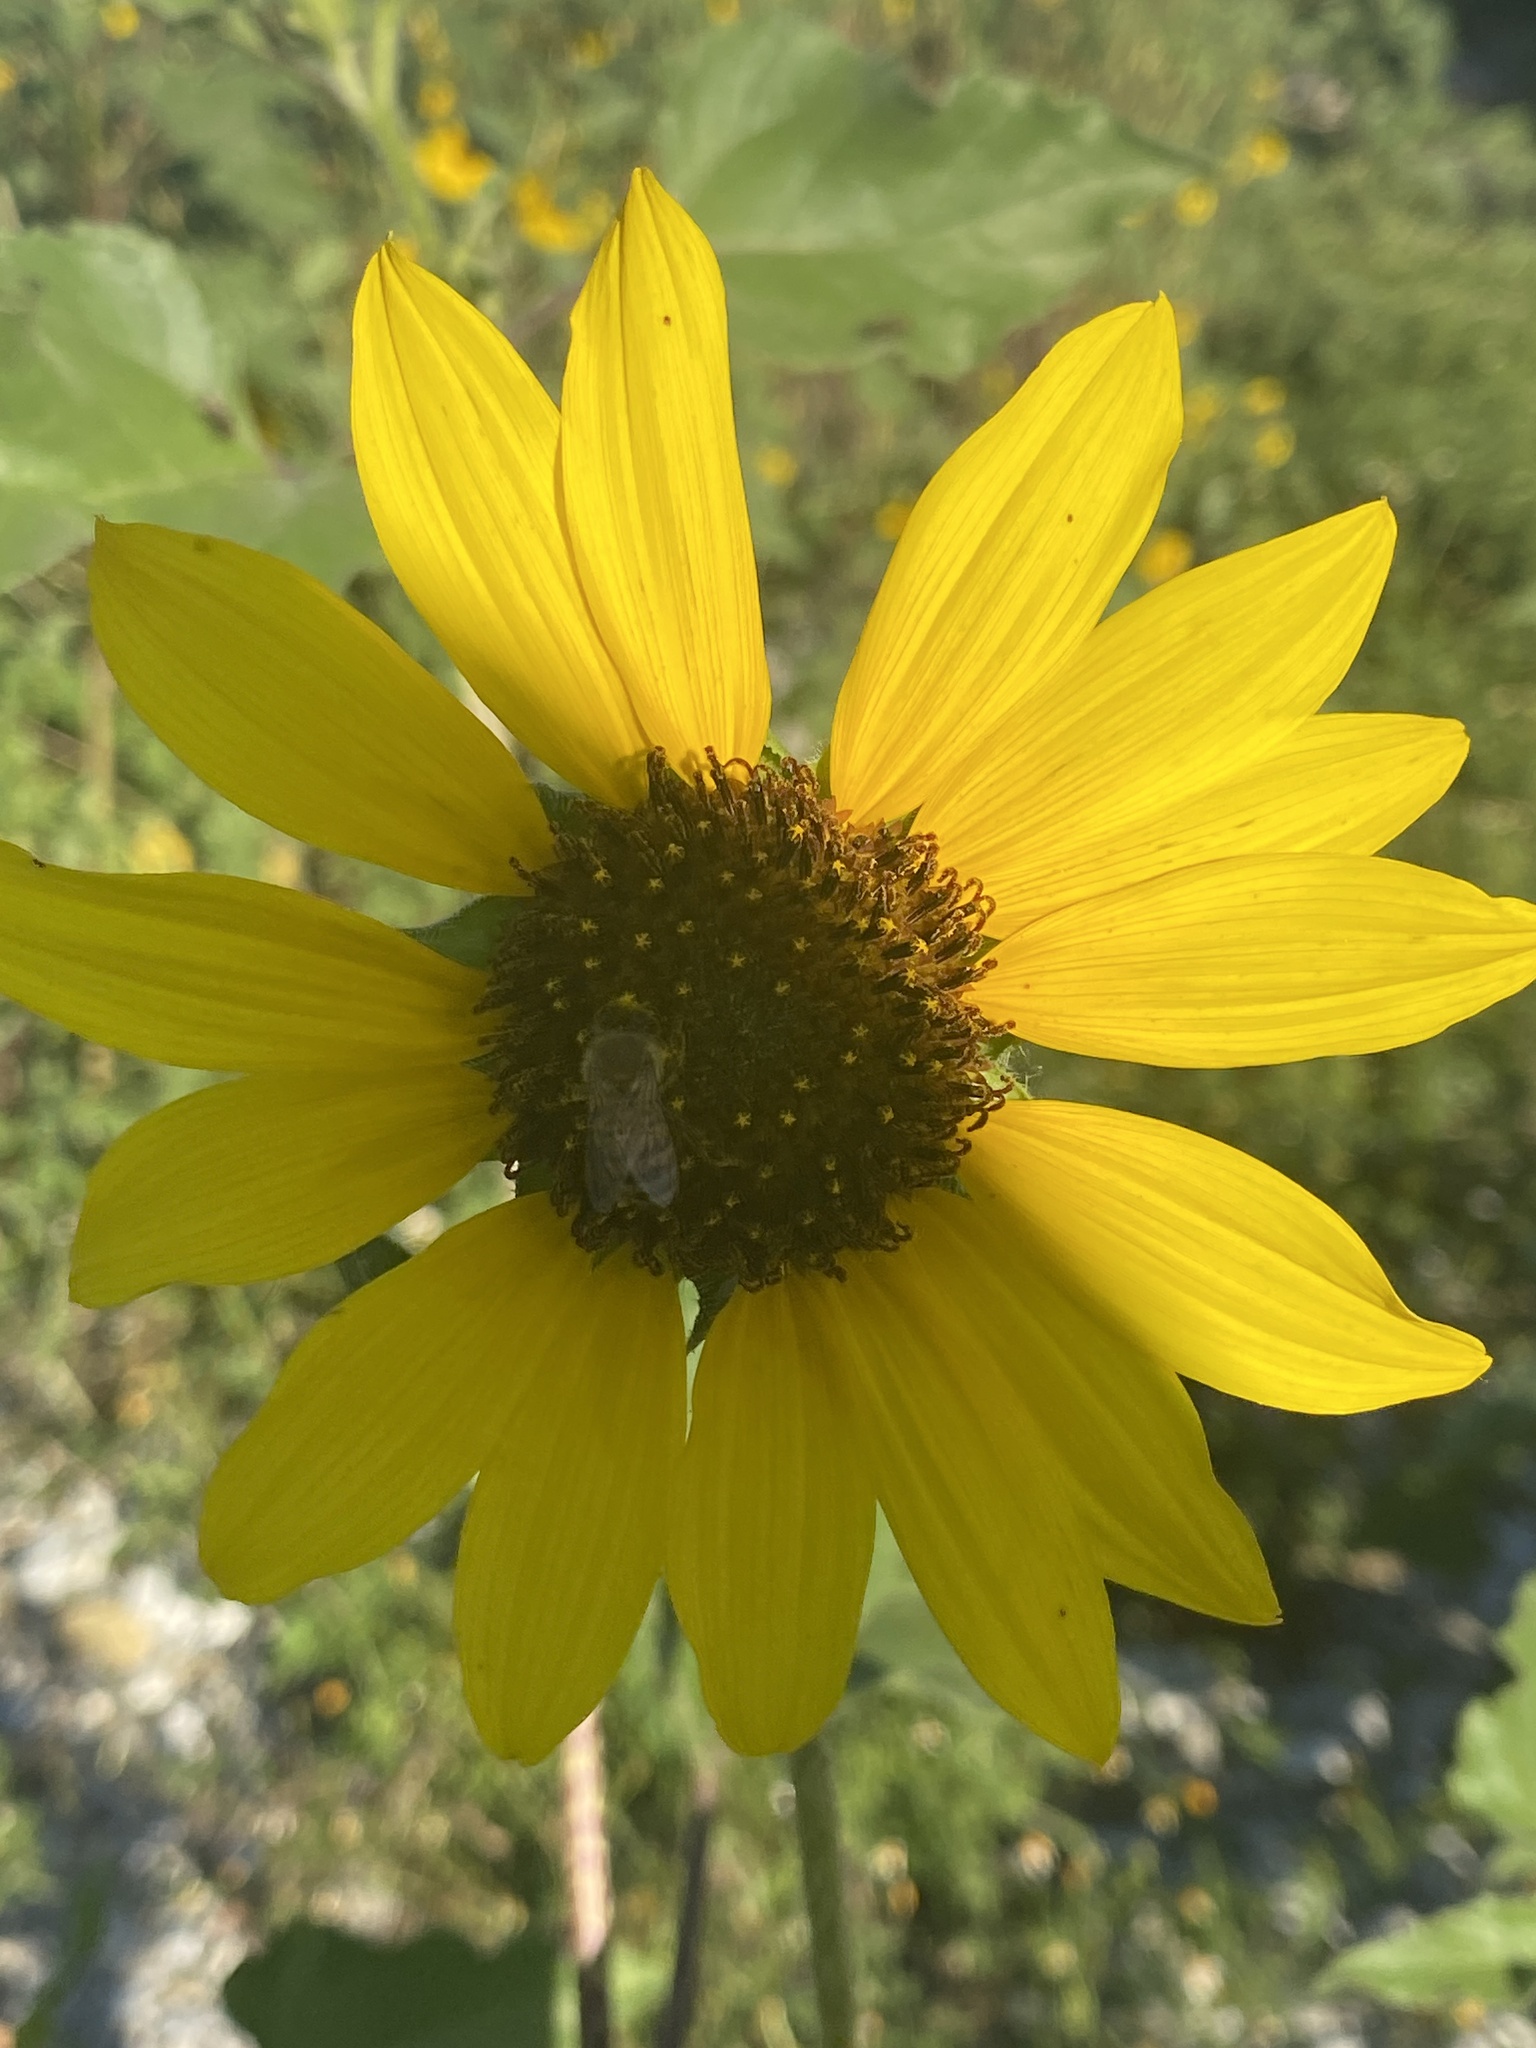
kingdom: Plantae
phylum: Tracheophyta
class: Magnoliopsida
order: Asterales
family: Asteraceae
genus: Helianthus
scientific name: Helianthus annuus
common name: Sunflower
